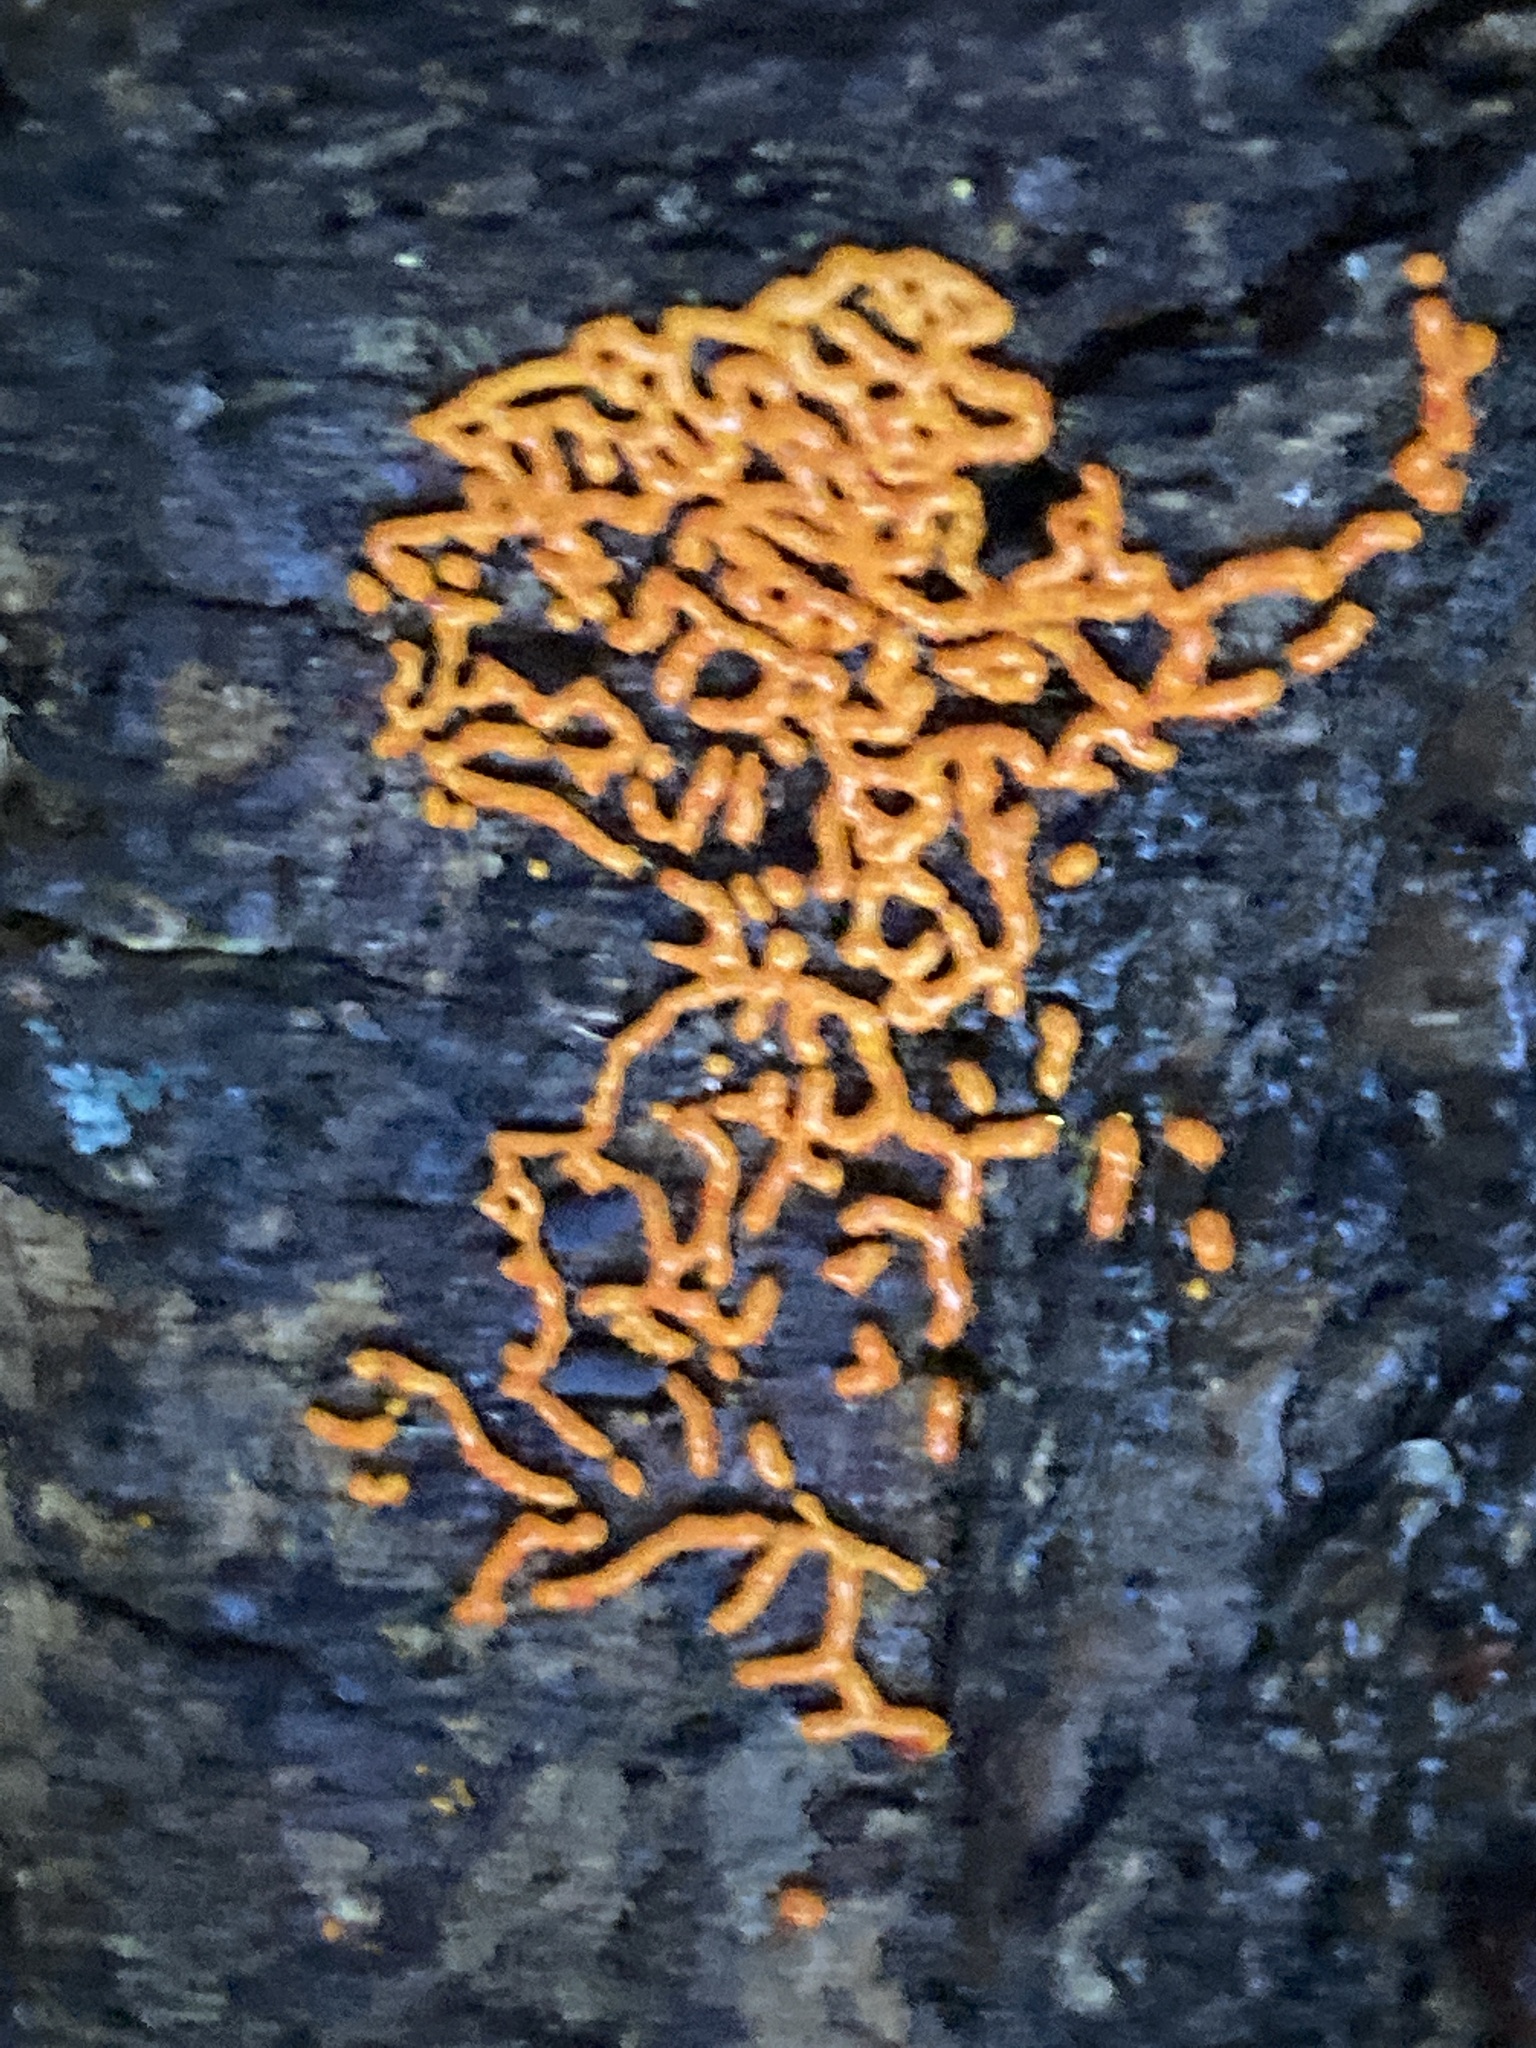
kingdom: Protozoa
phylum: Mycetozoa
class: Myxomycetes
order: Trichiales
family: Arcyriaceae
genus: Hemitrichia
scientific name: Hemitrichia serpula
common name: Pretzel slime mold
